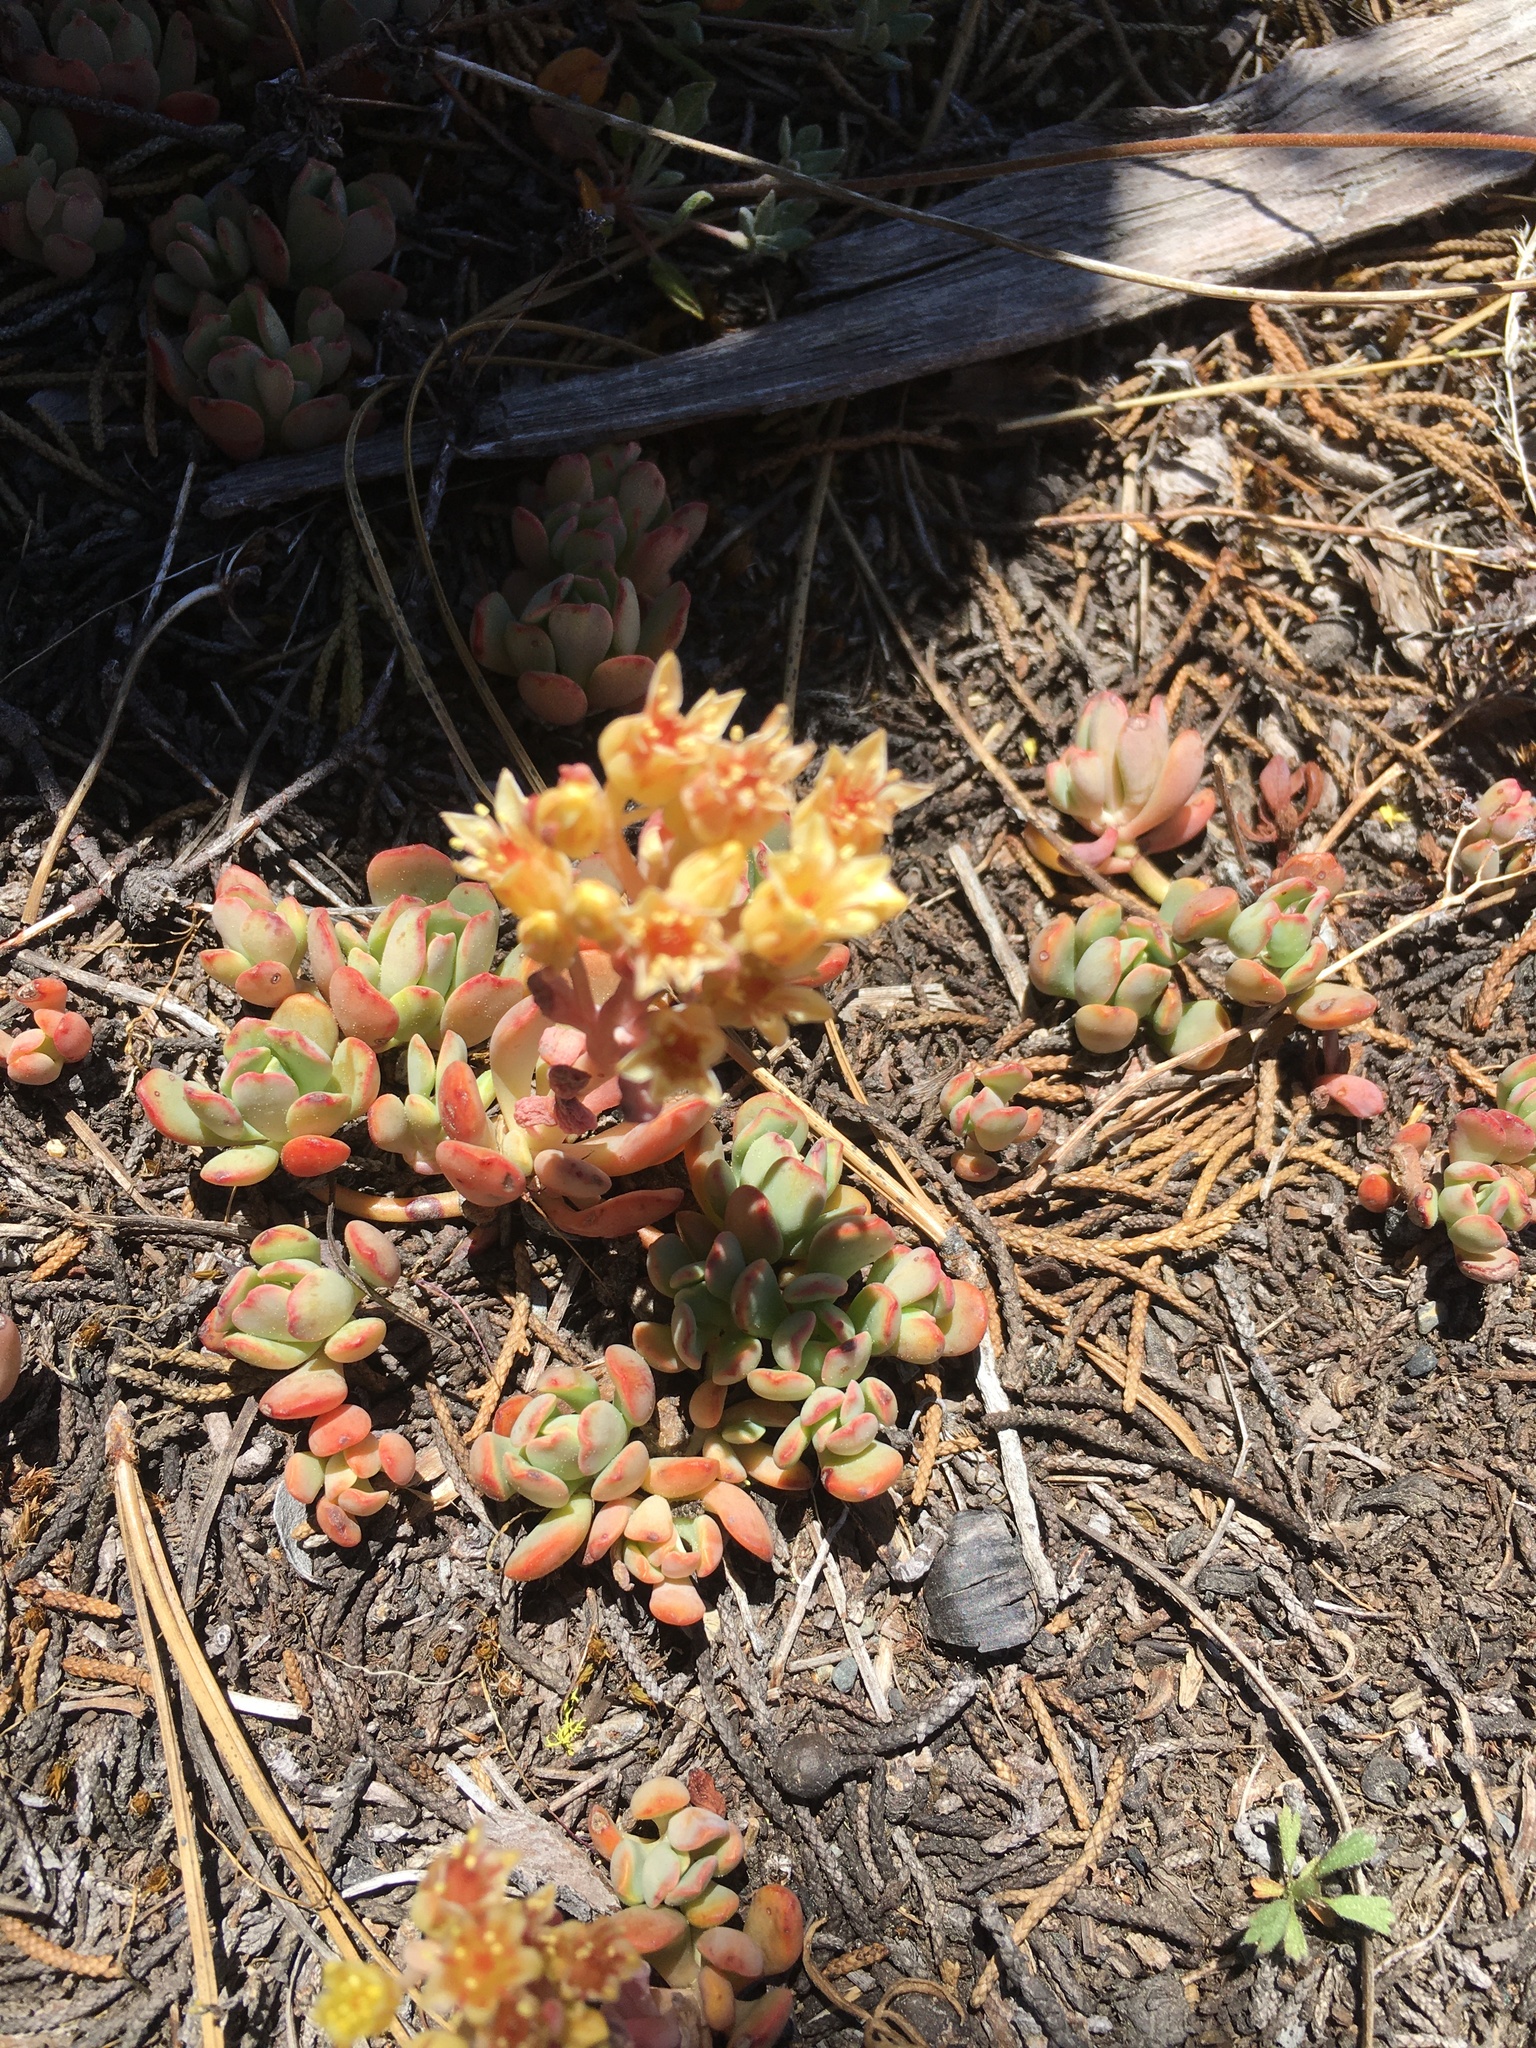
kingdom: Plantae
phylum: Tracheophyta
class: Magnoliopsida
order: Saxifragales
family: Crassulaceae
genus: Sedum
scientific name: Sedum obtusatum
